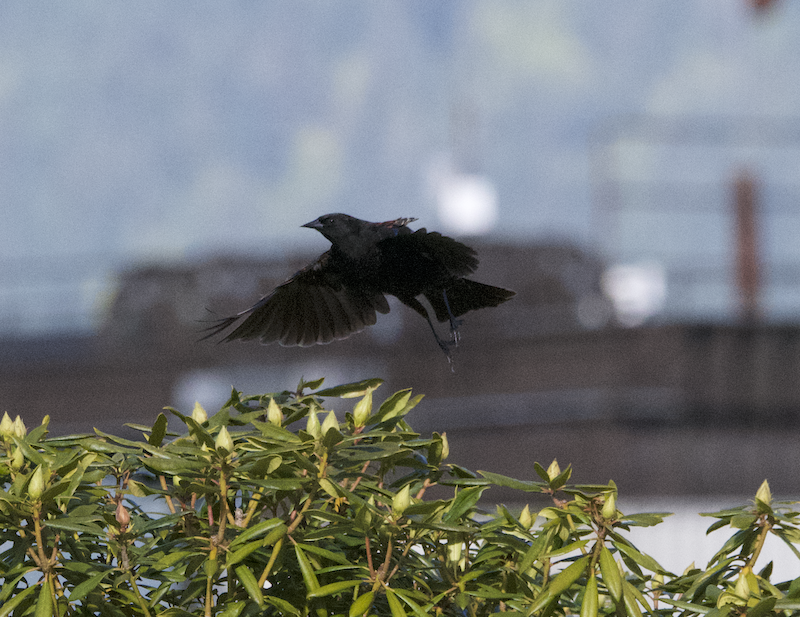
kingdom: Animalia
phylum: Chordata
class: Aves
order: Passeriformes
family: Icteridae
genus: Agelaius
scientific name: Agelaius phoeniceus
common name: Red-winged blackbird
